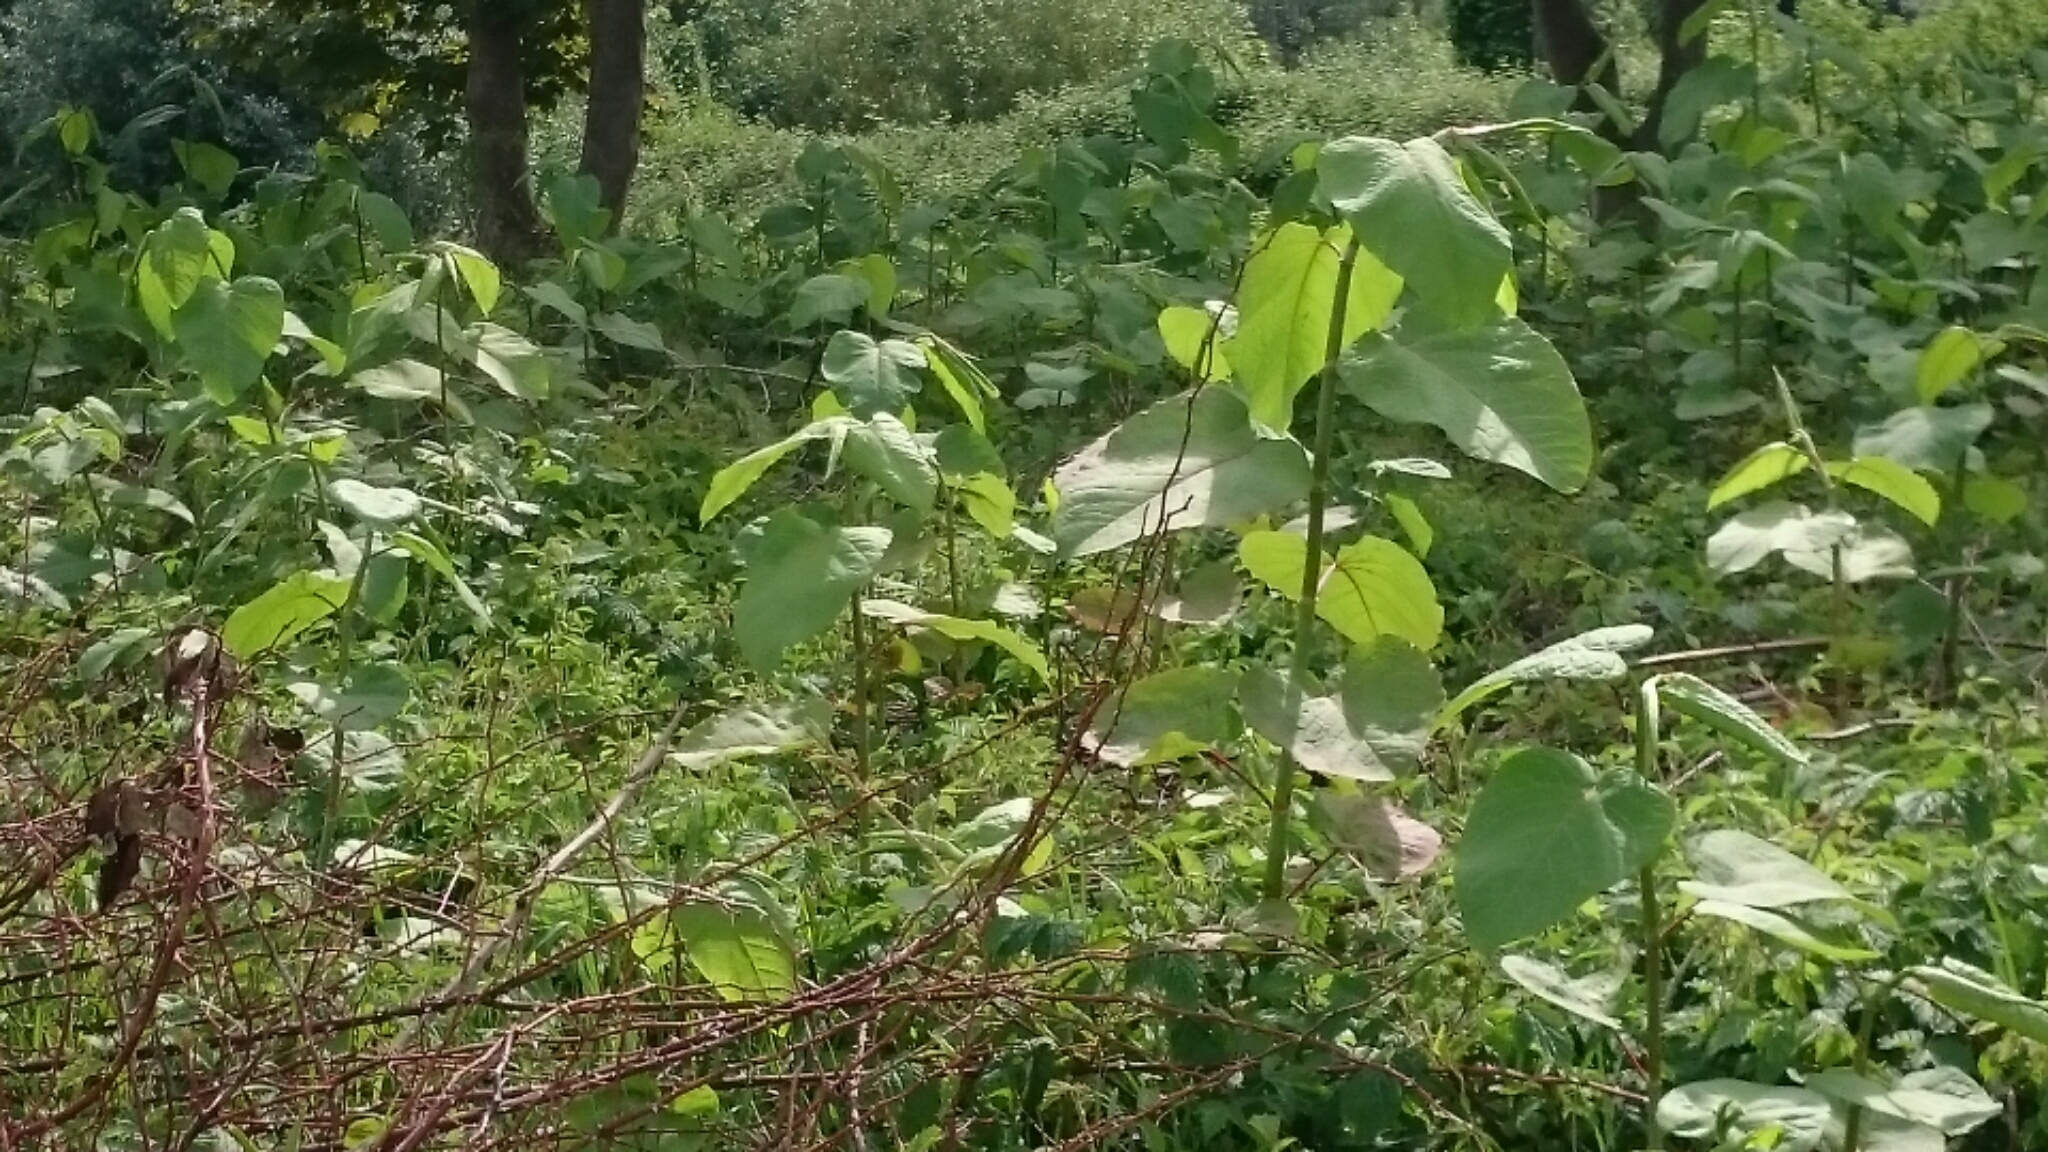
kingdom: Plantae
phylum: Tracheophyta
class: Magnoliopsida
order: Caryophyllales
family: Polygonaceae
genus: Reynoutria
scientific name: Reynoutria sachalinensis
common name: Giant knotweed
